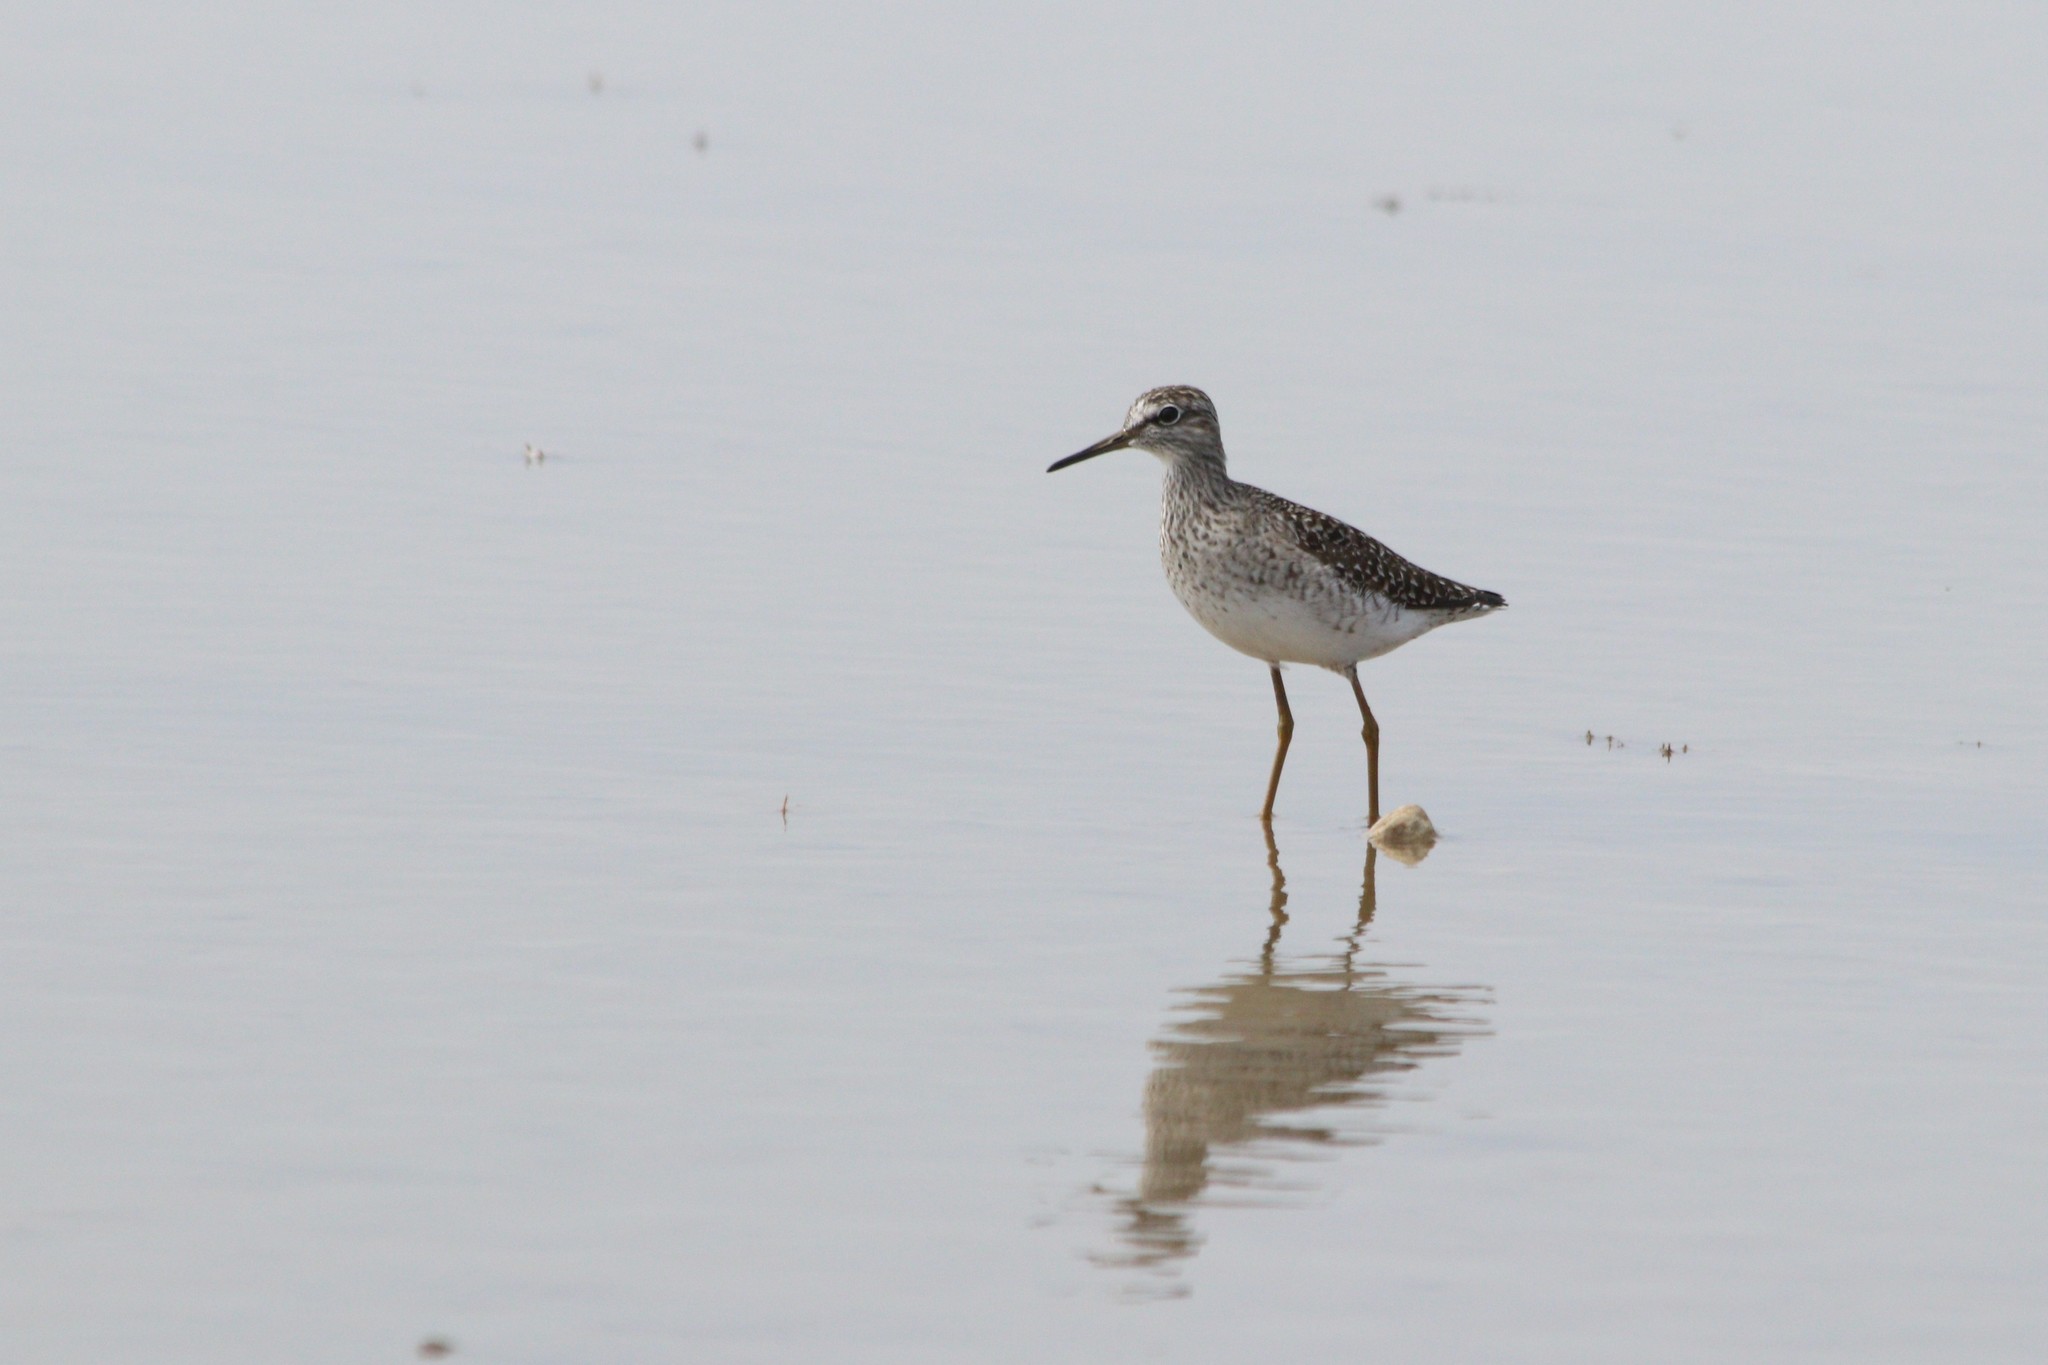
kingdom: Animalia
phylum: Chordata
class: Aves
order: Charadriiformes
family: Scolopacidae
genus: Tringa
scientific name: Tringa glareola
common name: Wood sandpiper
